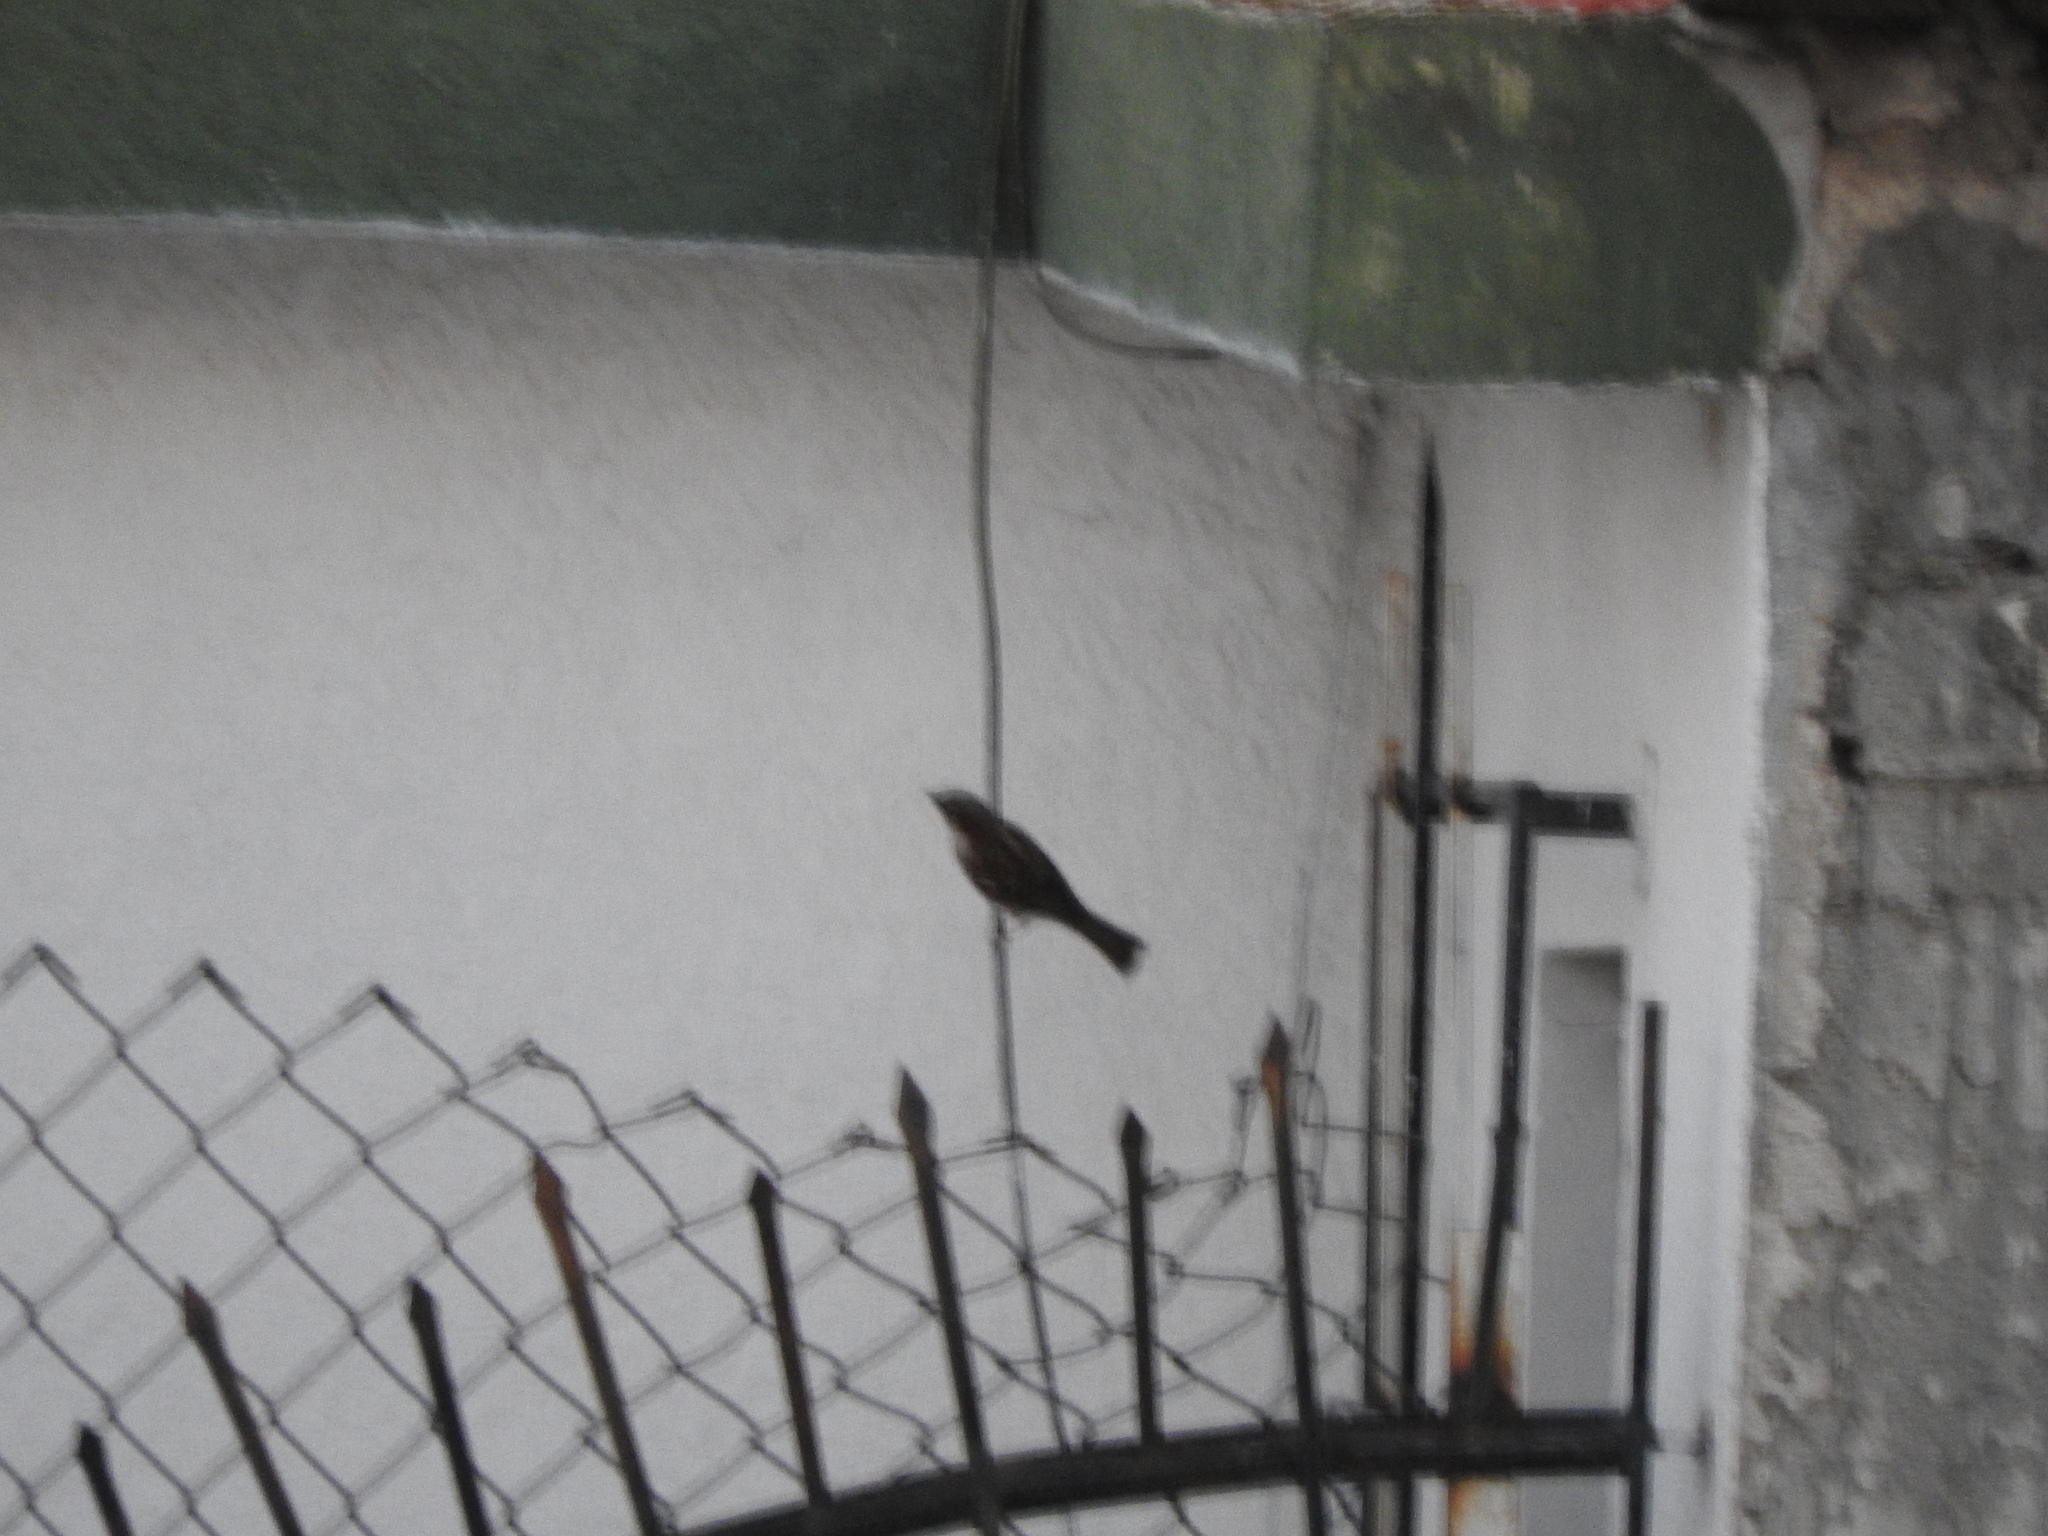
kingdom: Animalia
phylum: Chordata
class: Aves
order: Passeriformes
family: Passeridae
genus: Passer
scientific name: Passer domesticus
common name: House sparrow
